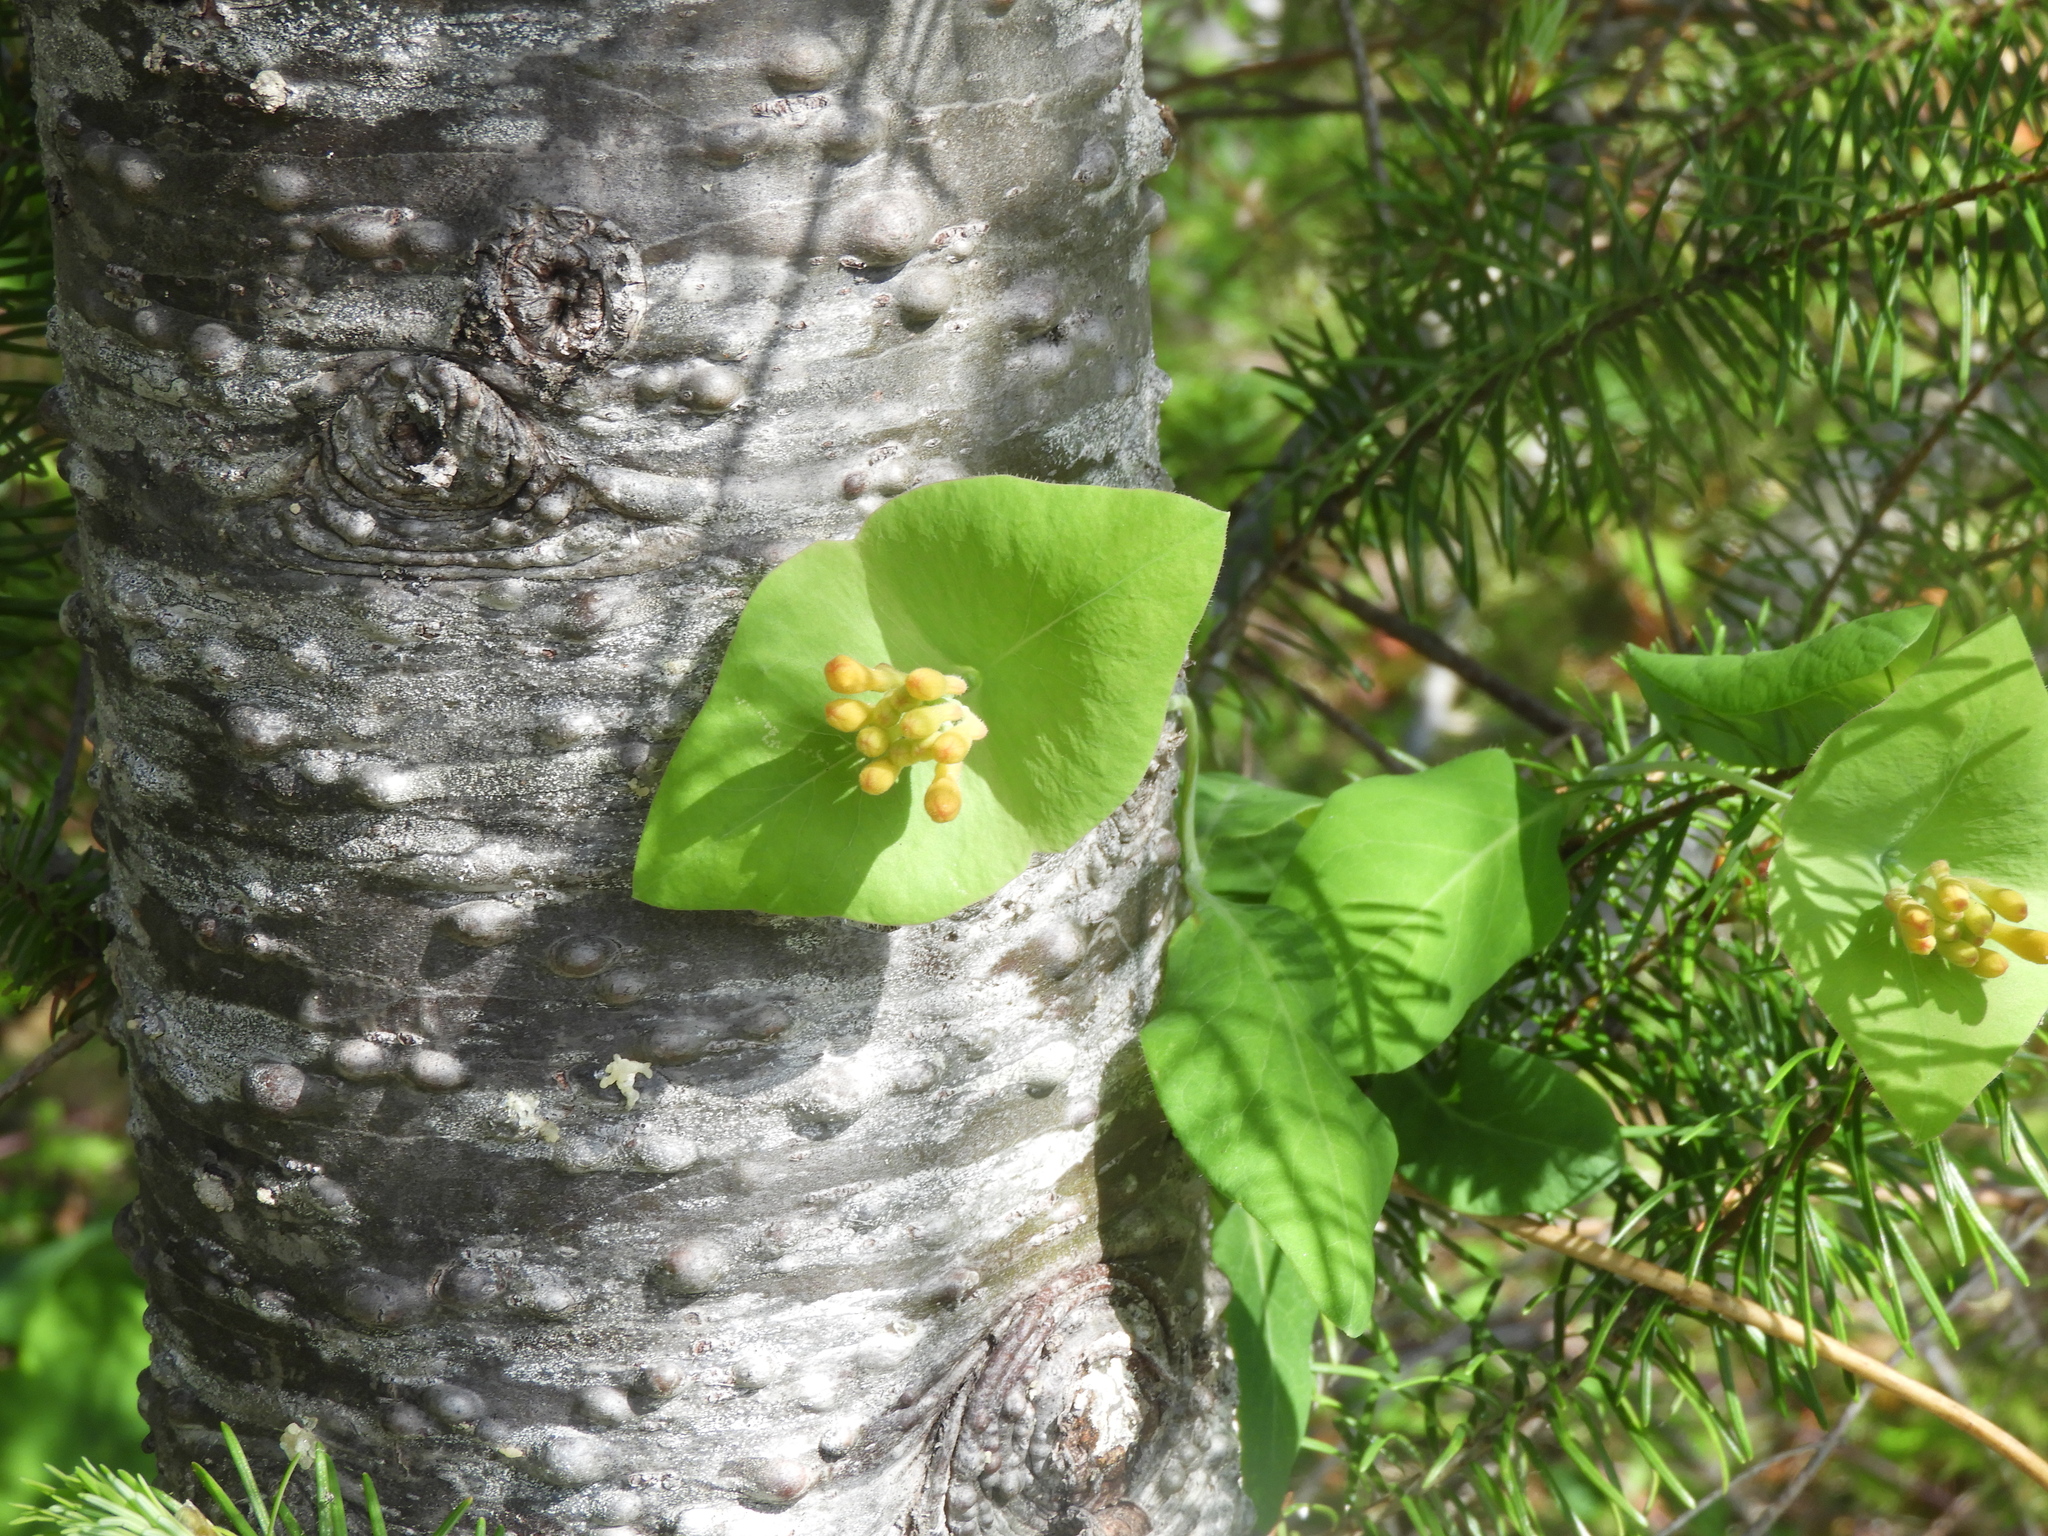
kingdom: Plantae
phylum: Tracheophyta
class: Magnoliopsida
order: Dipsacales
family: Caprifoliaceae
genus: Lonicera
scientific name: Lonicera ciliosa
